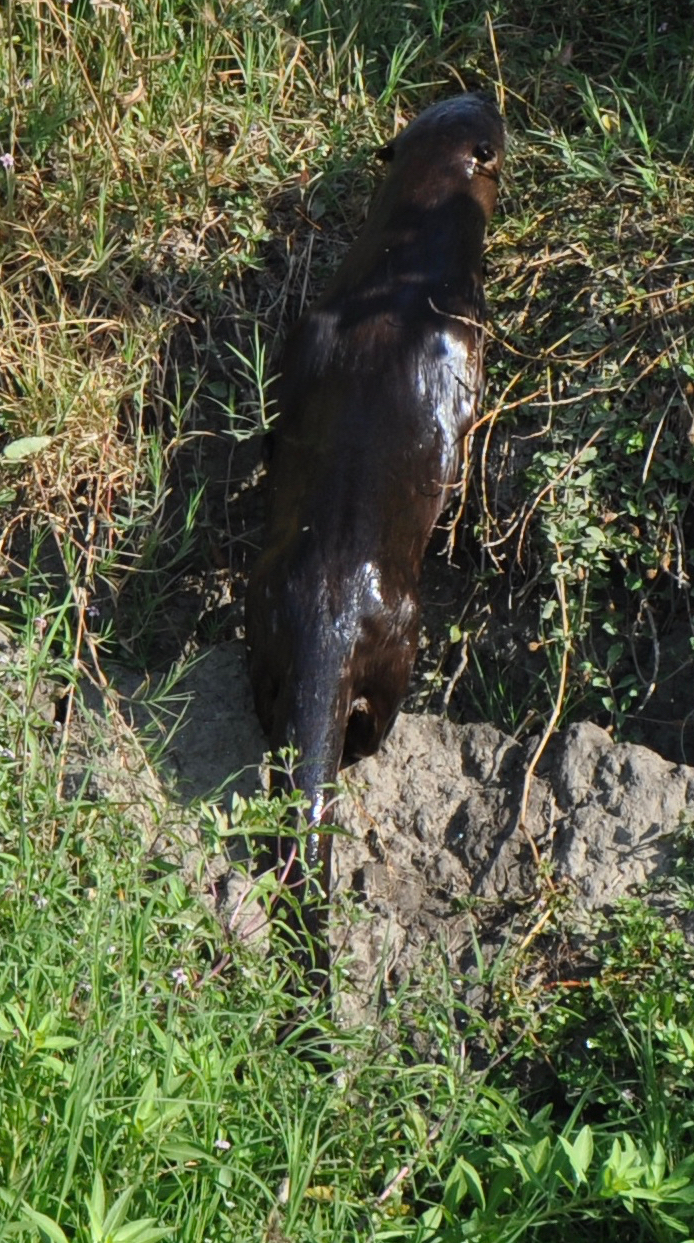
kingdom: Animalia
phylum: Chordata
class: Mammalia
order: Carnivora
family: Mustelidae
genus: Lontra
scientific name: Lontra canadensis
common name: North american river otter
